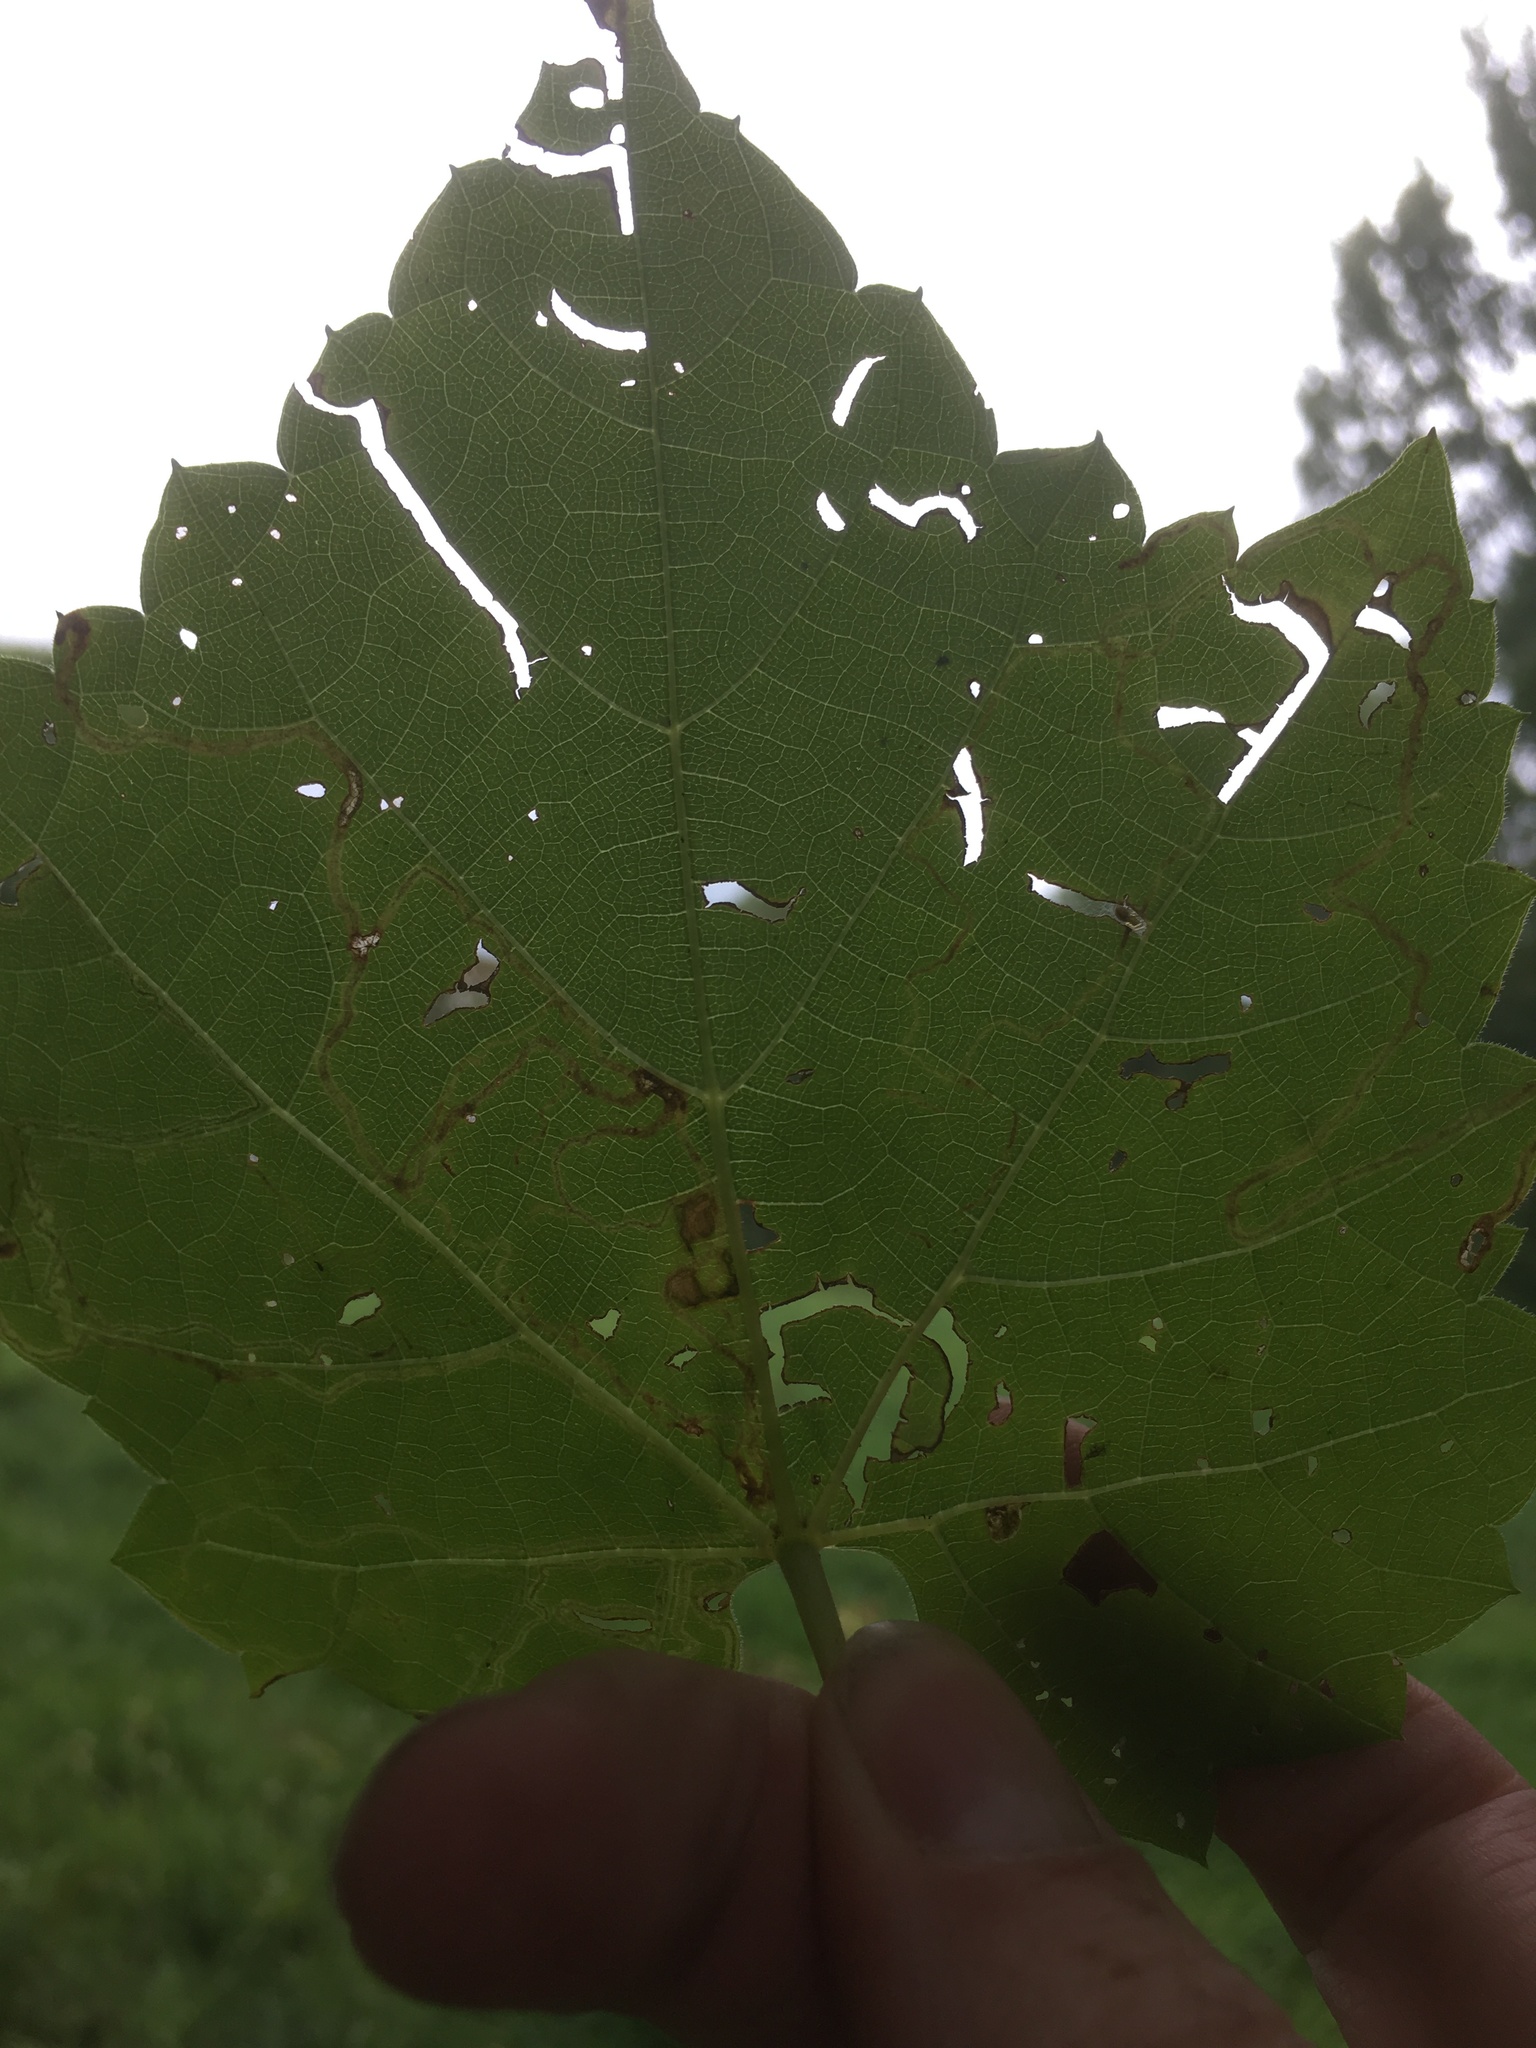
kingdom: Plantae
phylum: Tracheophyta
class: Magnoliopsida
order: Vitales
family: Vitaceae
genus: Vitis
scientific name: Vitis riparia
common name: Frost grape
